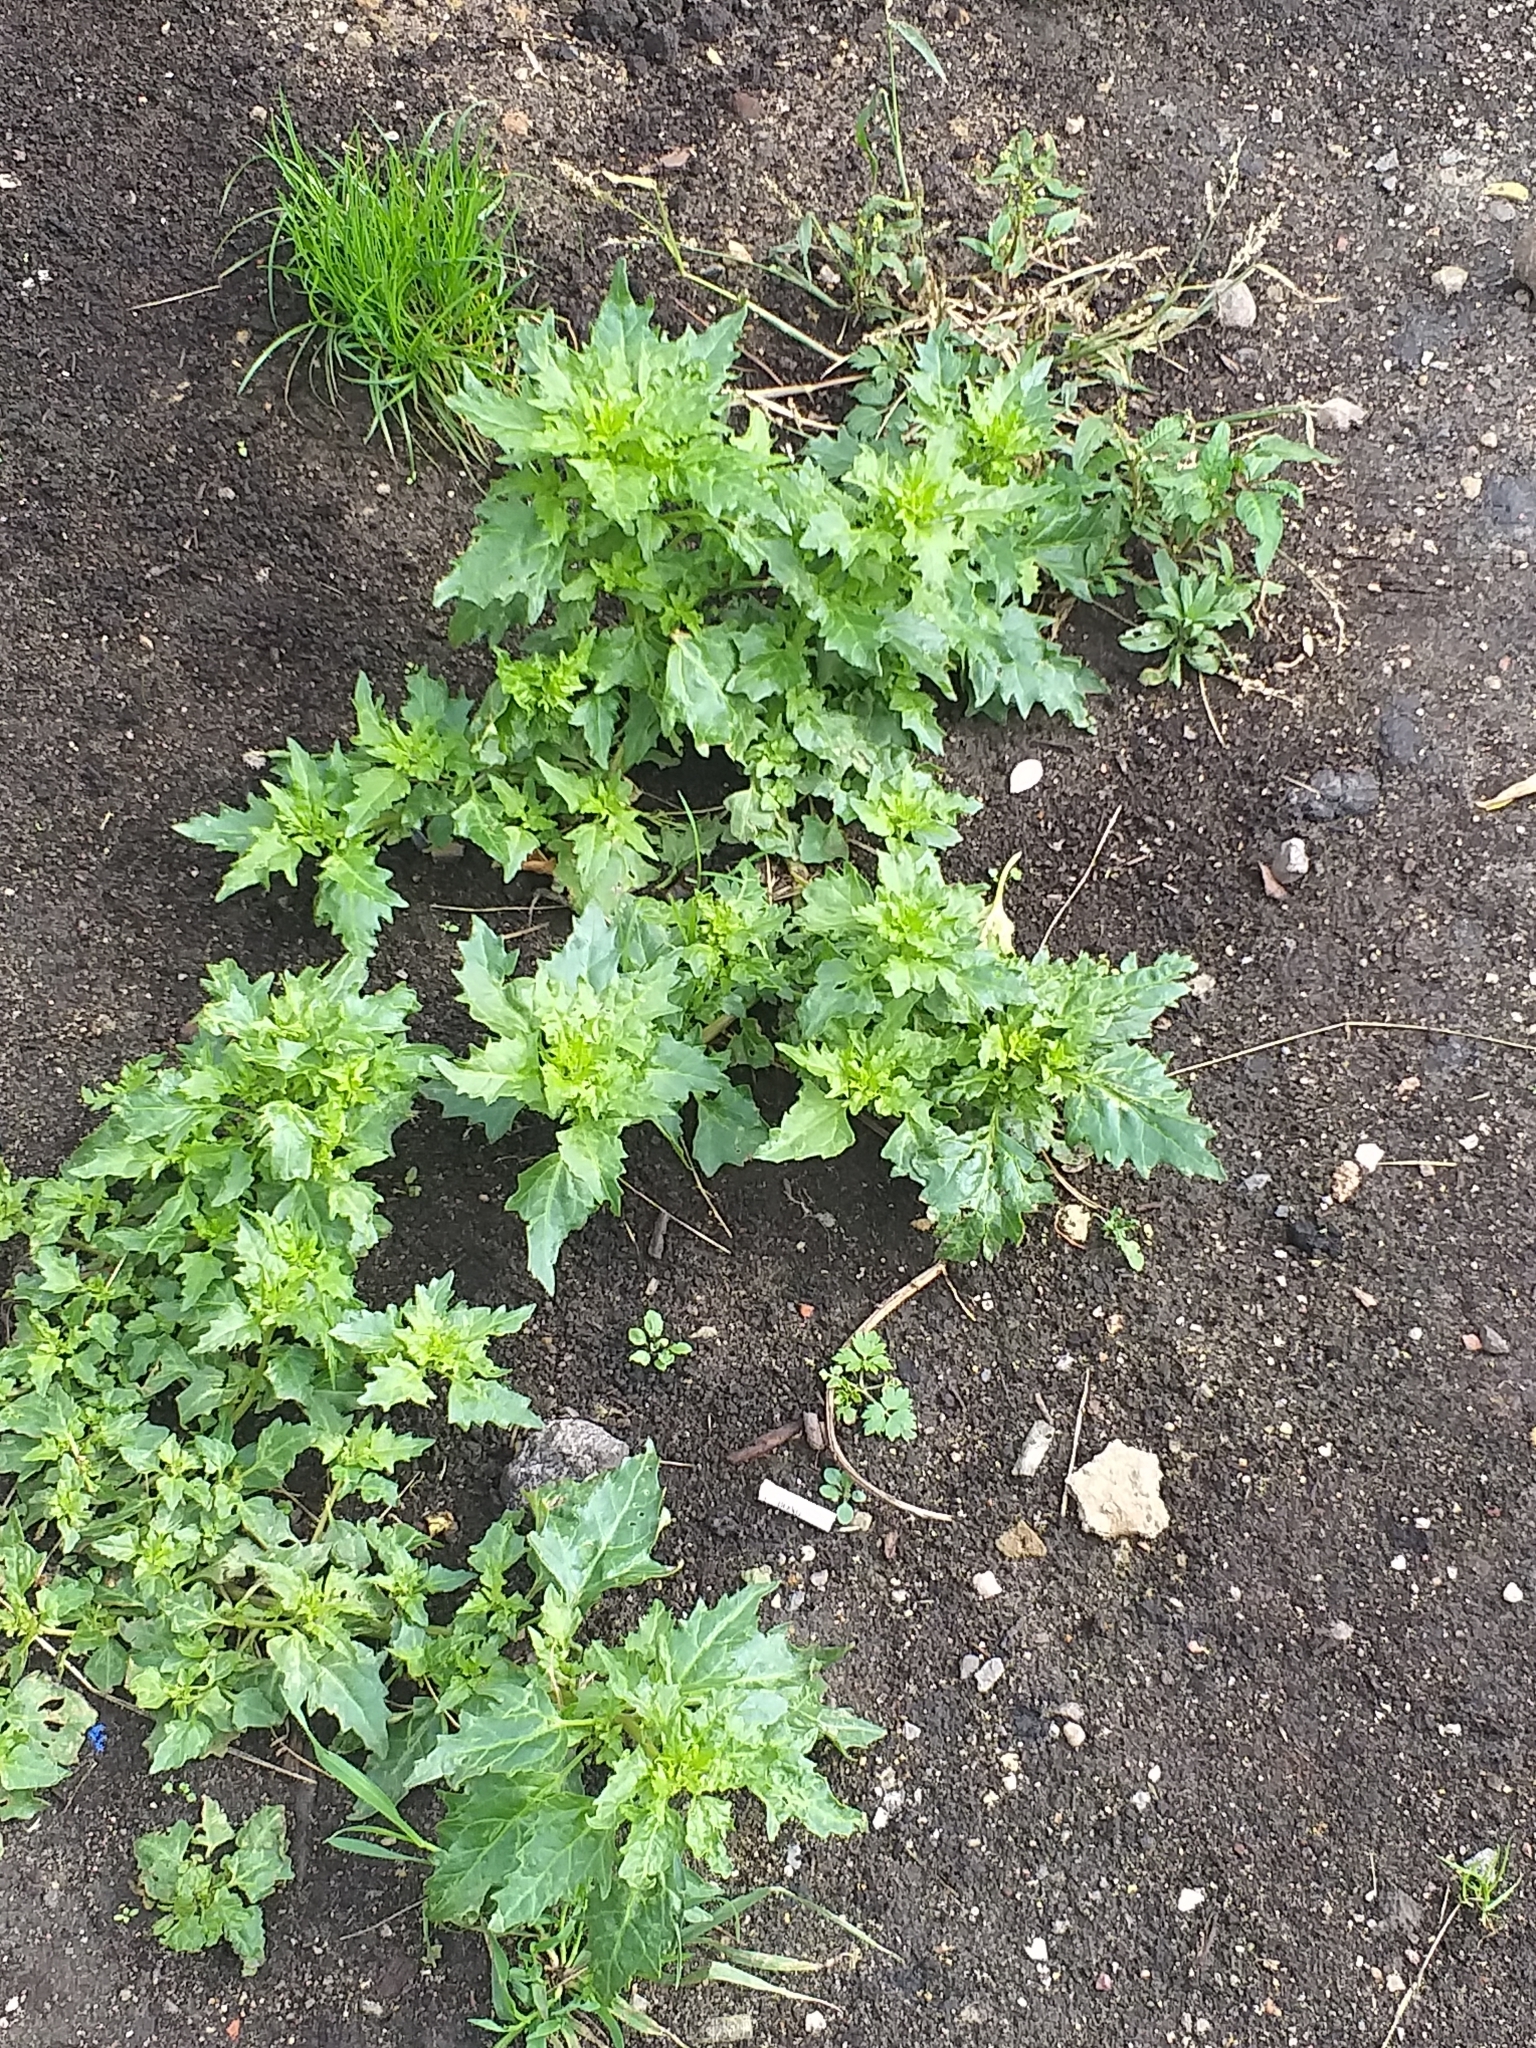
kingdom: Plantae
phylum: Tracheophyta
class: Magnoliopsida
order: Caryophyllales
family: Amaranthaceae
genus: Oxybasis
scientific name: Oxybasis rubra
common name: Red goosefoot
